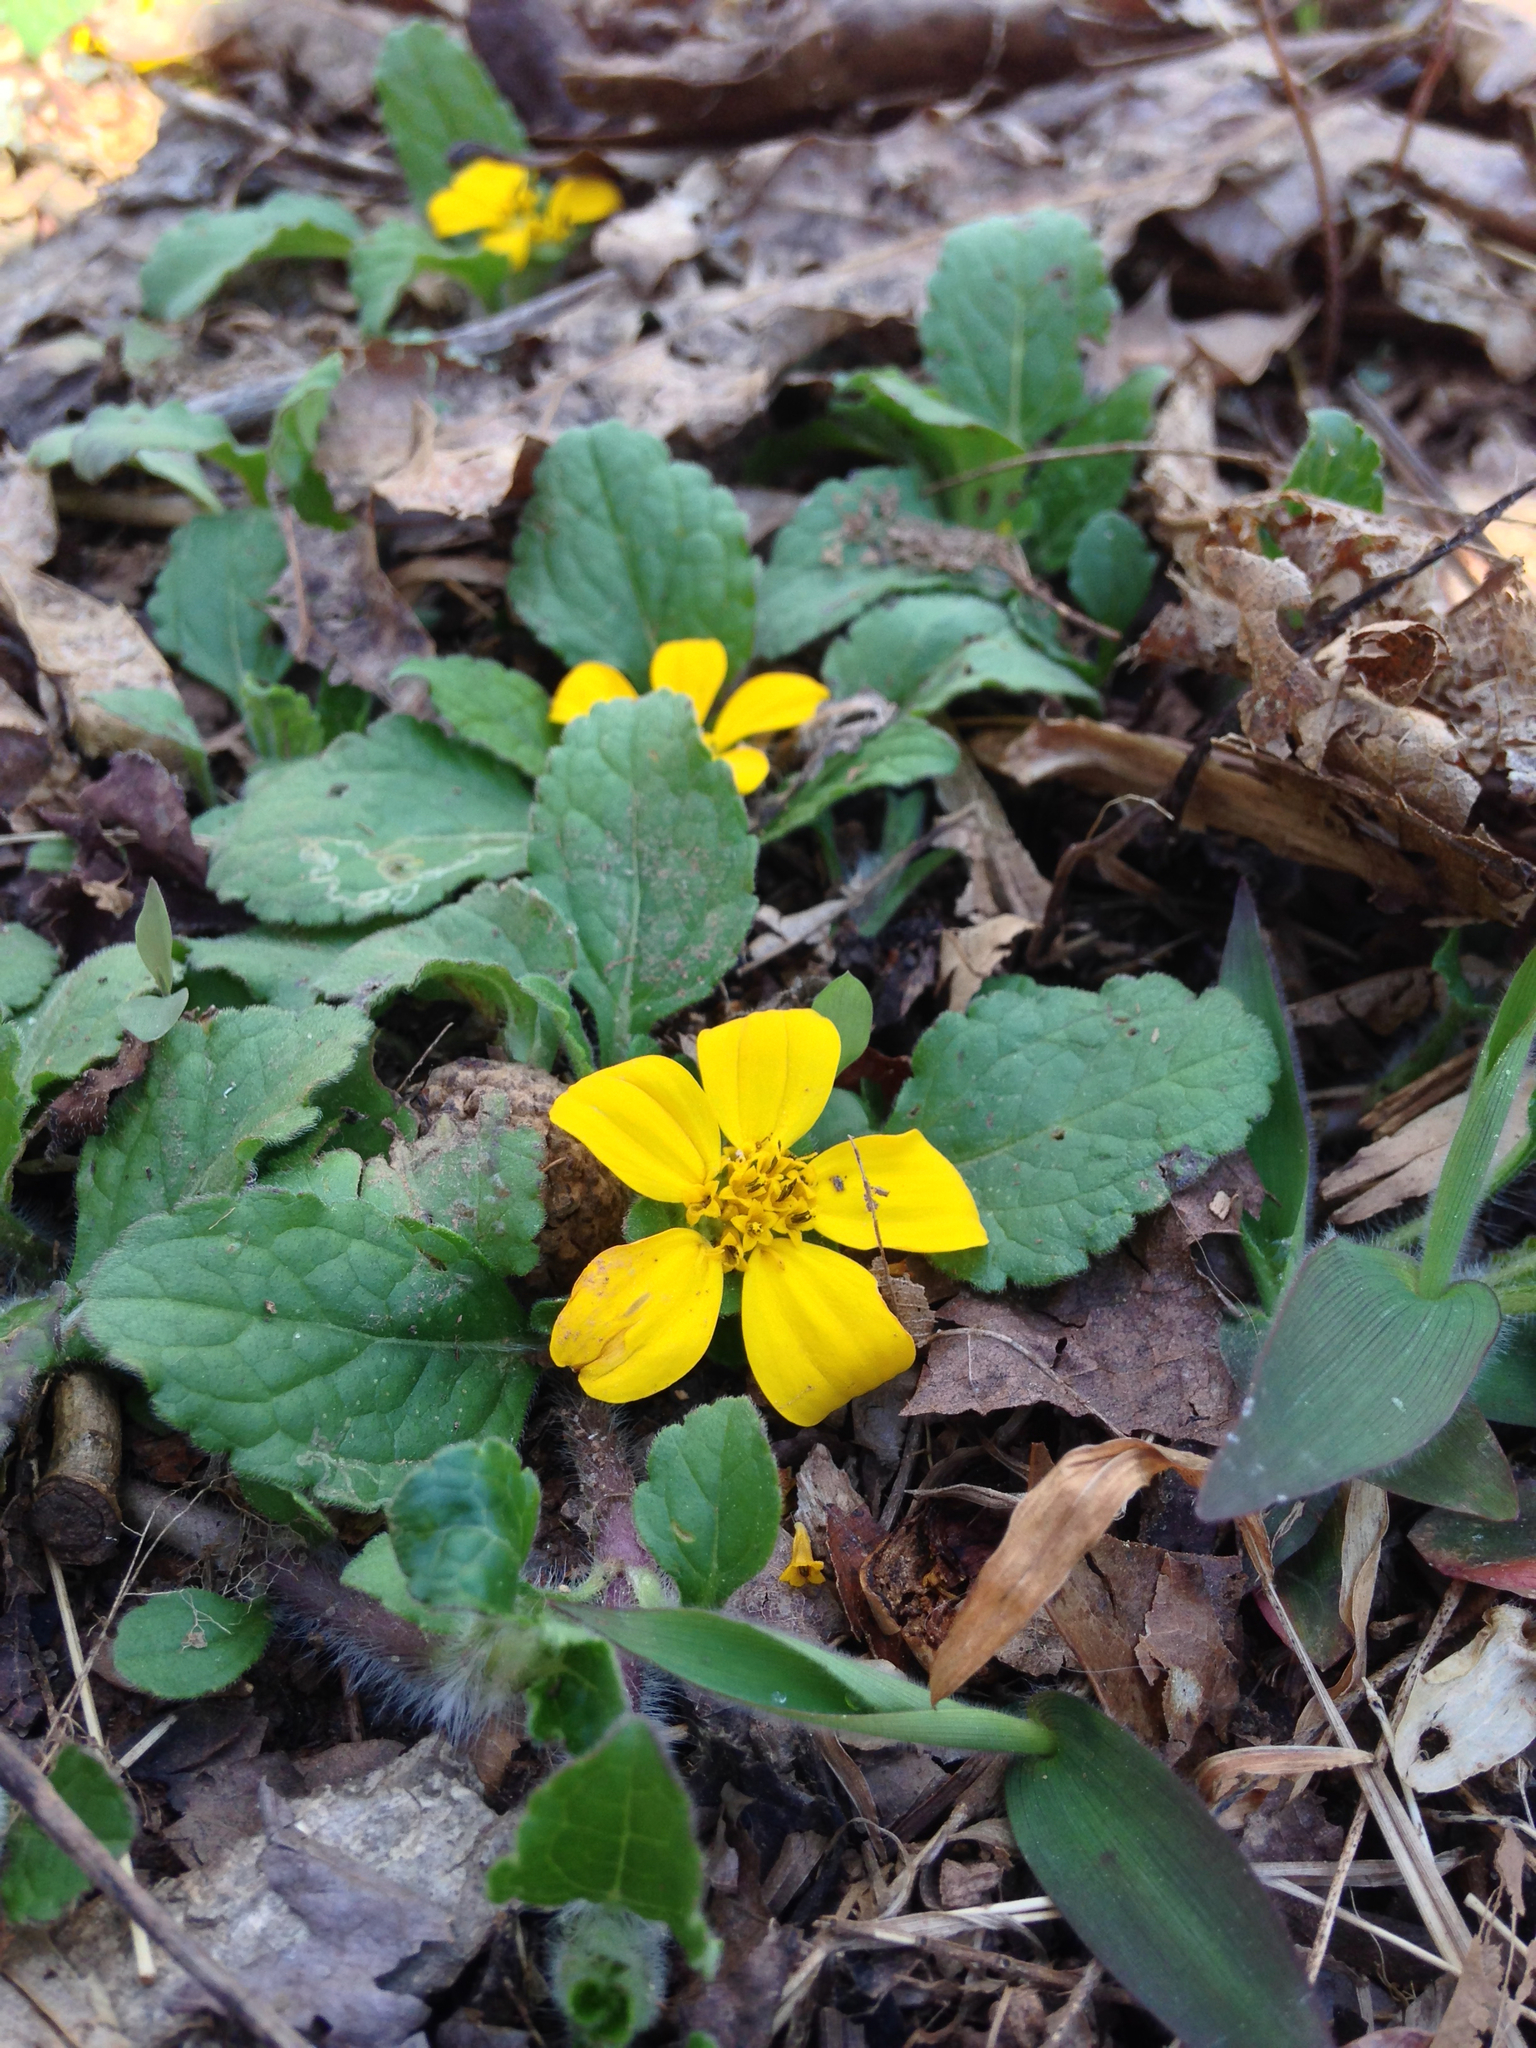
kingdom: Plantae
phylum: Tracheophyta
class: Magnoliopsida
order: Asterales
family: Asteraceae
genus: Chrysogonum
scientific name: Chrysogonum virginianum
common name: Golden-knee
